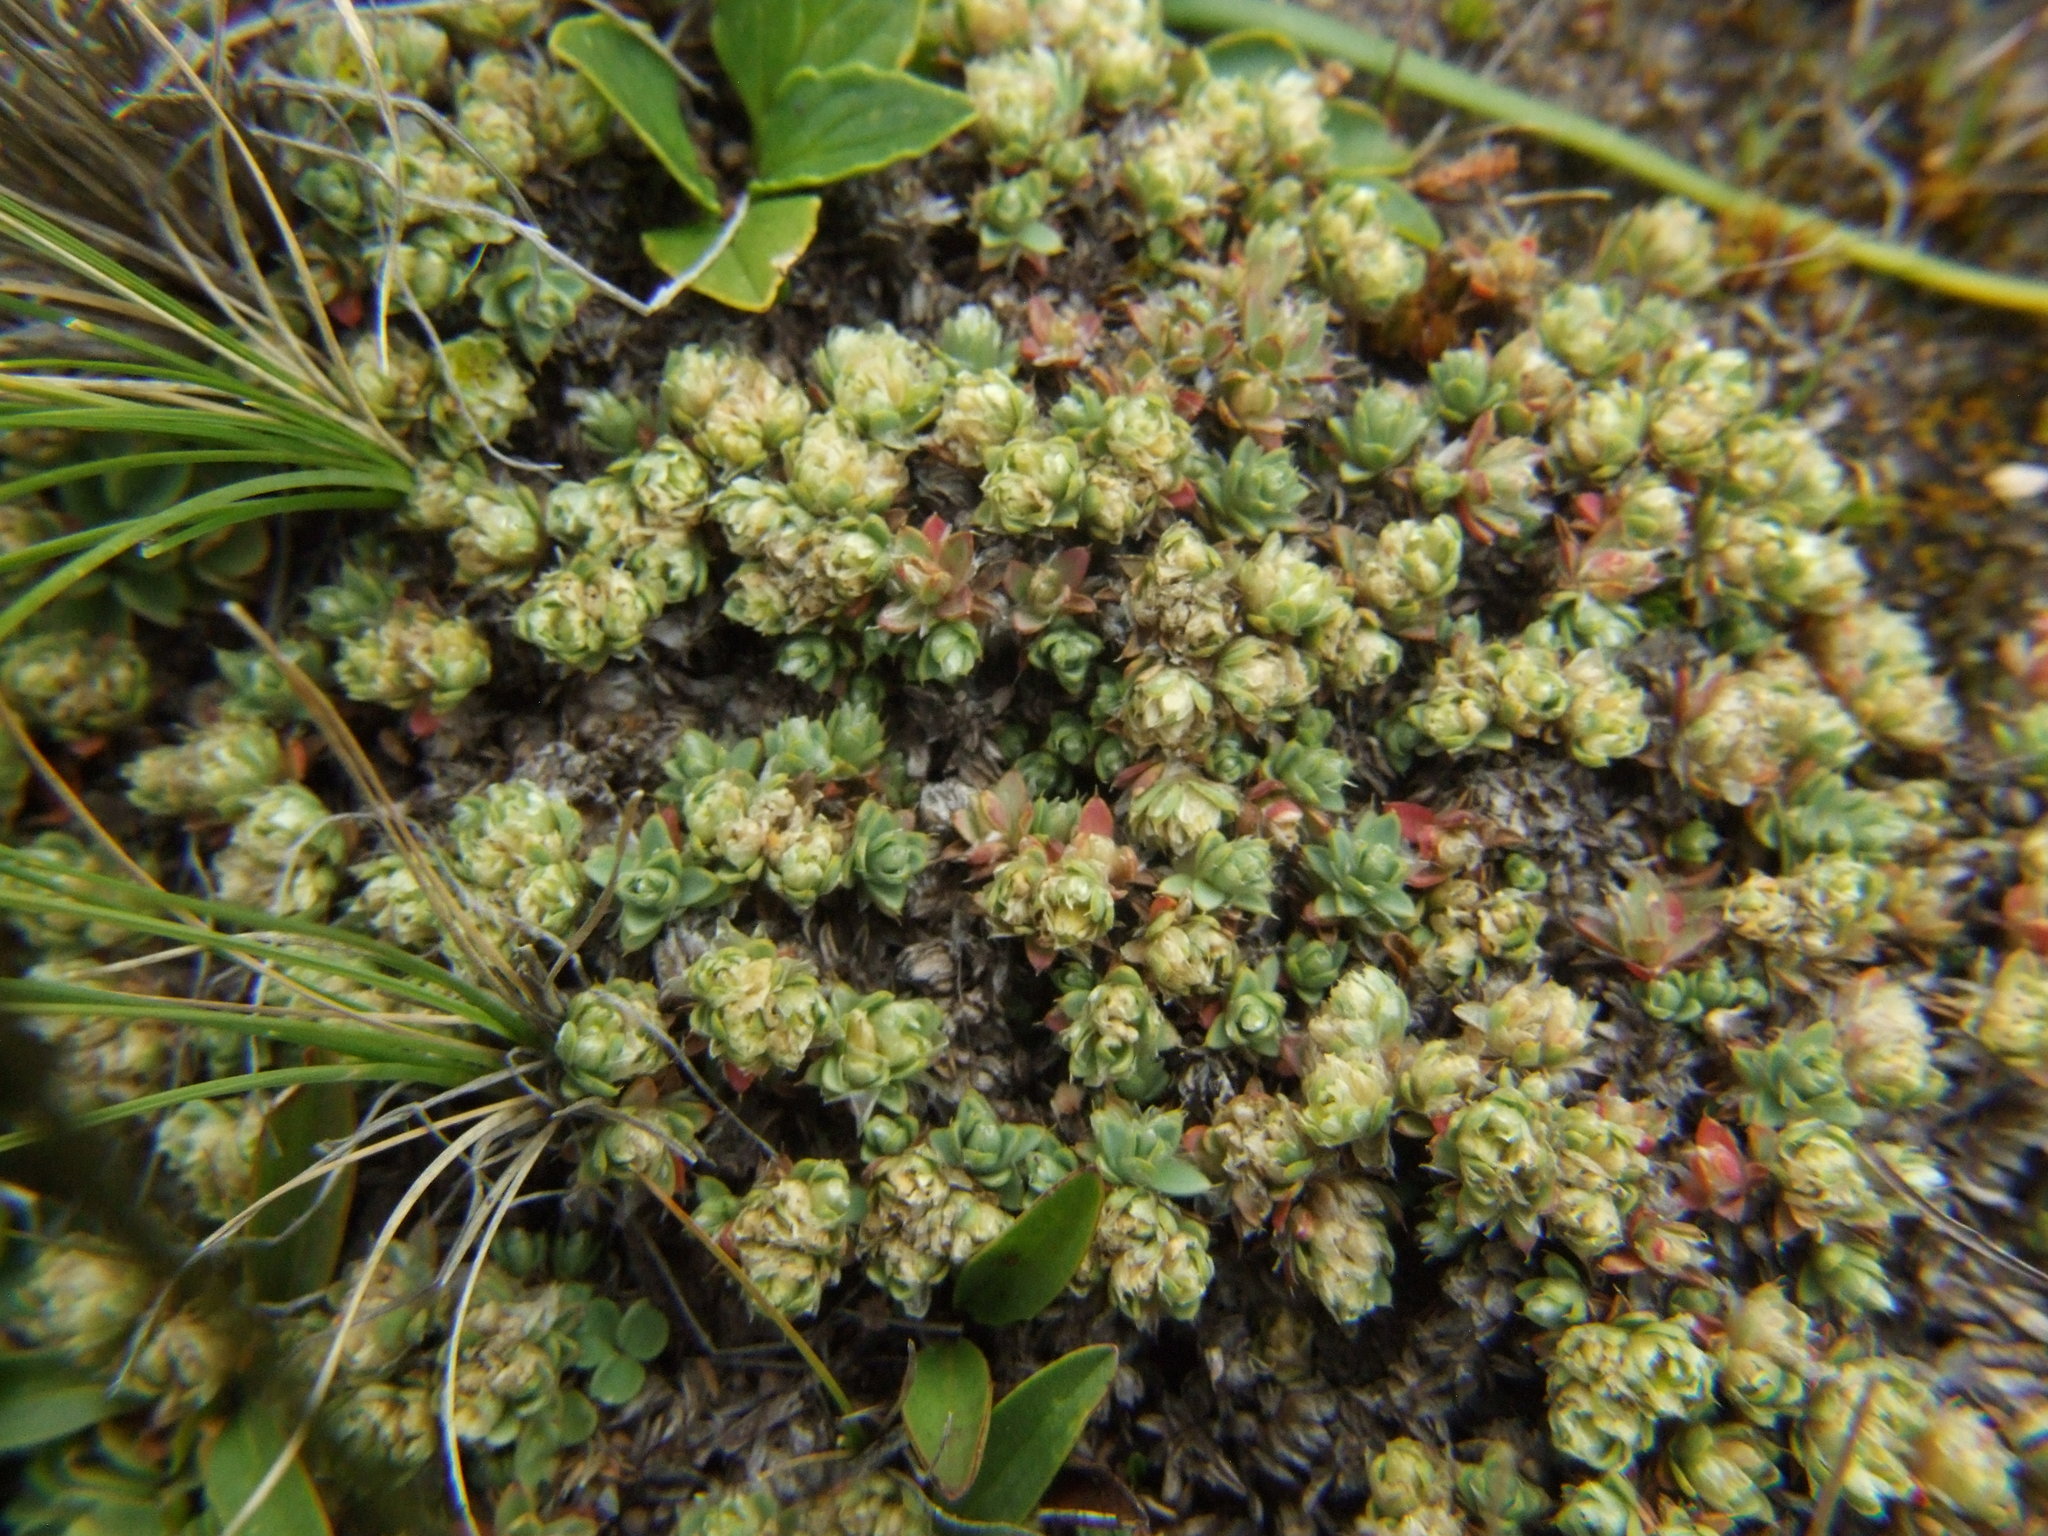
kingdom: Plantae
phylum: Tracheophyta
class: Magnoliopsida
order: Caryophyllales
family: Caryophyllaceae
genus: Paronychia
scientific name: Paronychia andina
